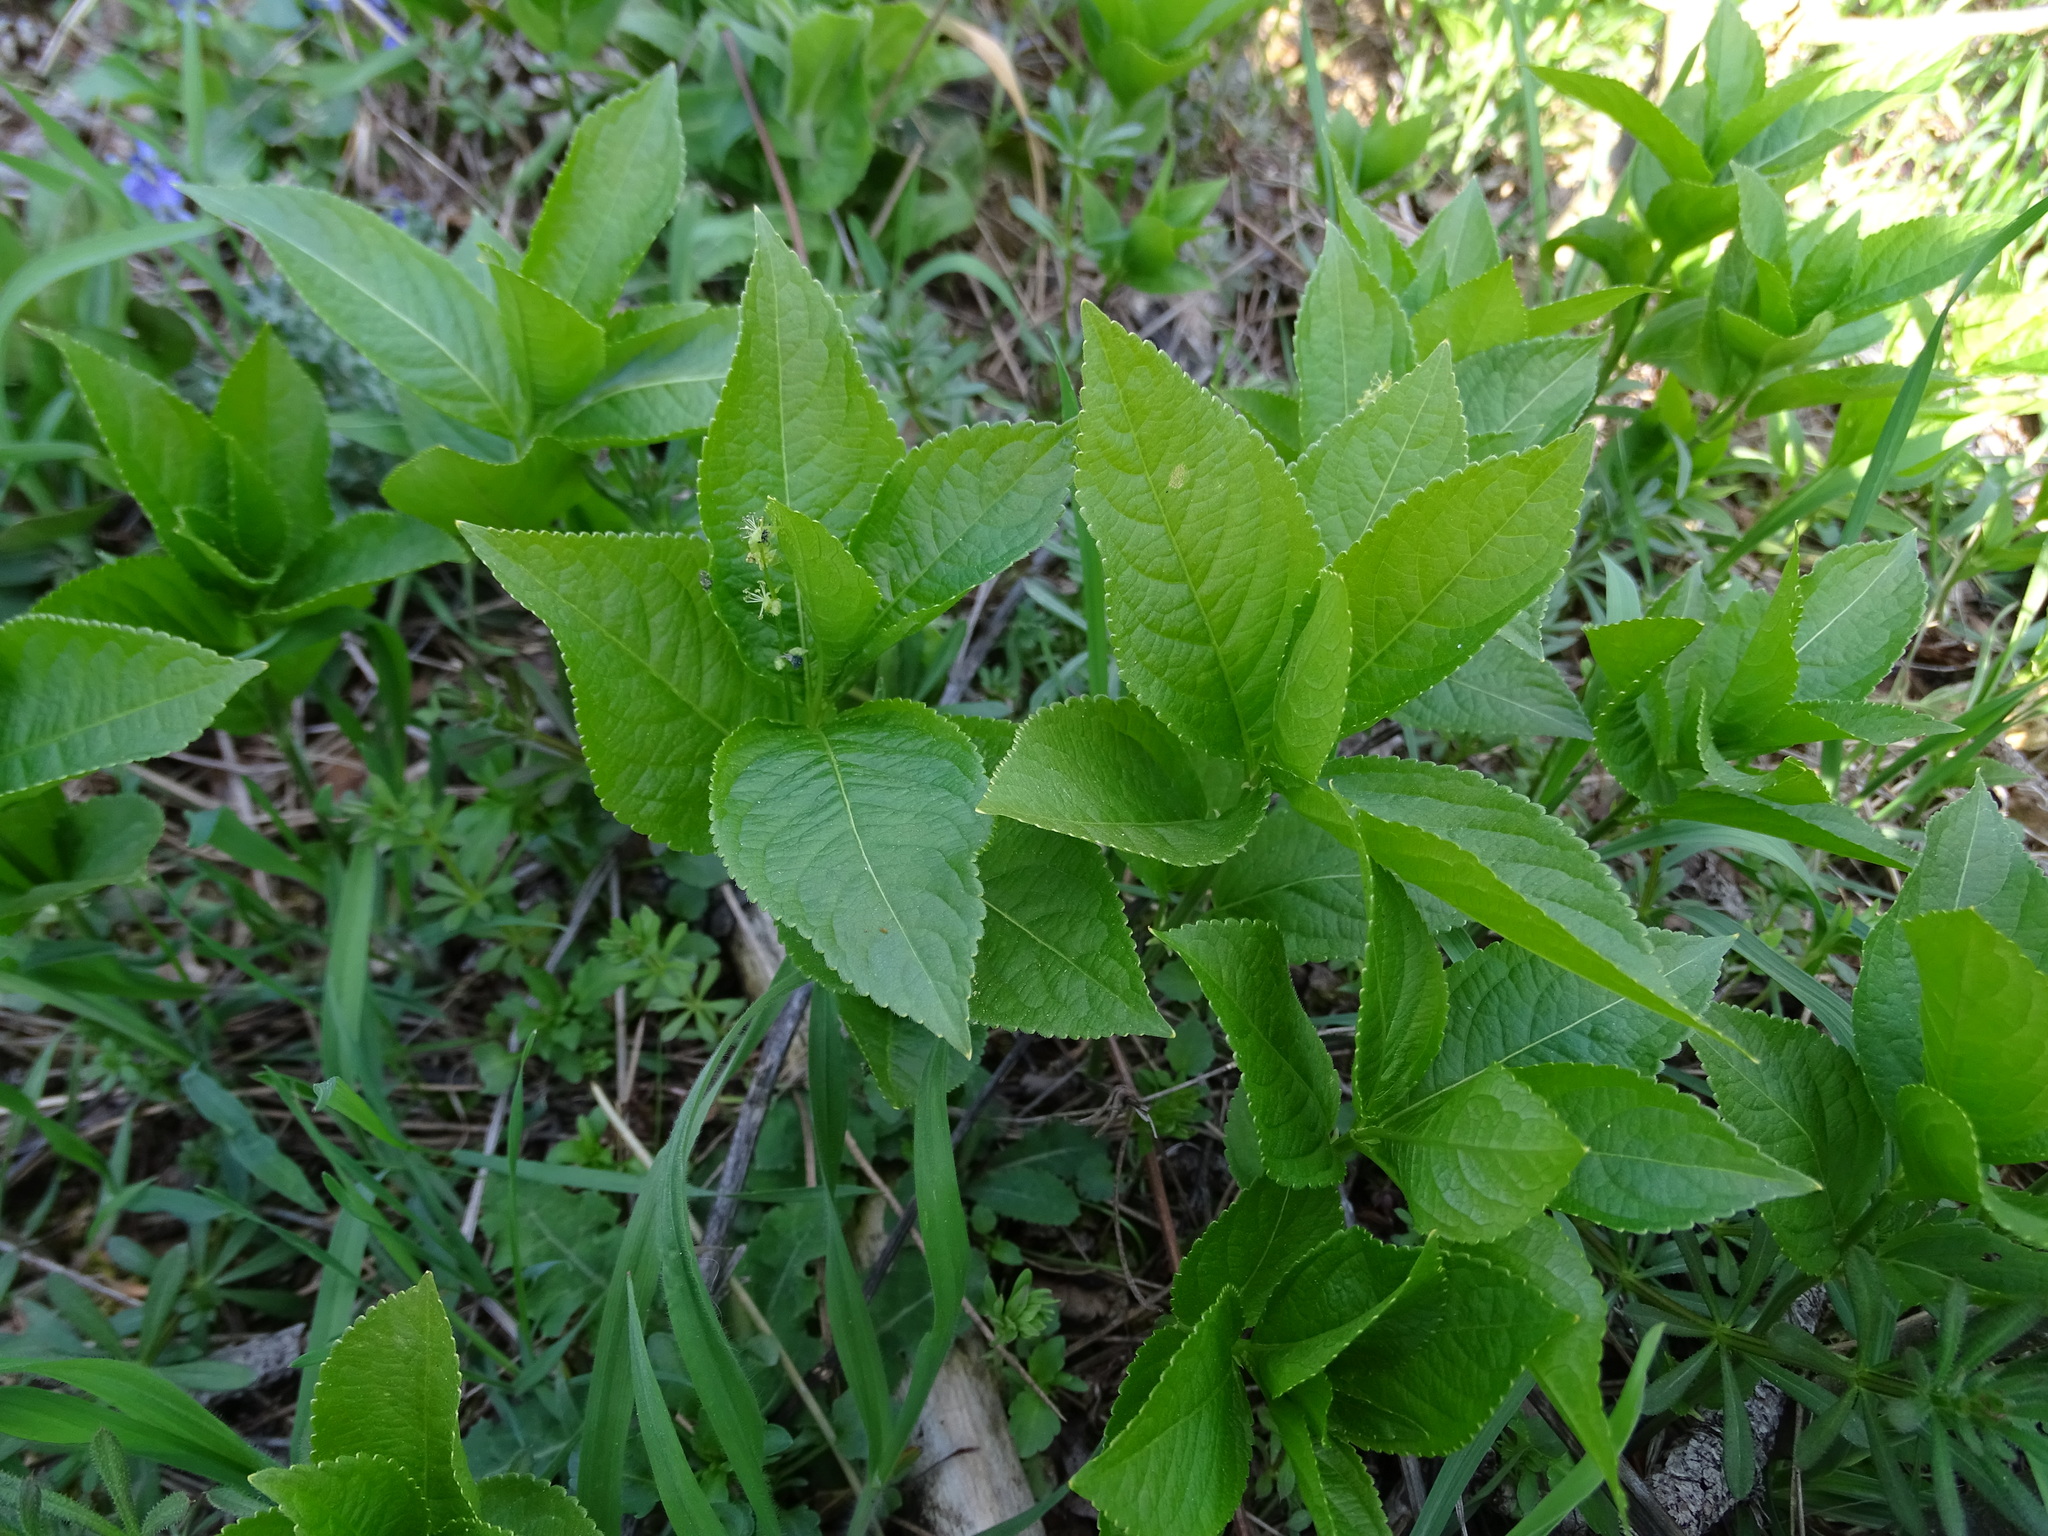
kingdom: Plantae
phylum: Tracheophyta
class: Magnoliopsida
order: Malpighiales
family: Euphorbiaceae
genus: Mercurialis
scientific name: Mercurialis perennis
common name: Dog mercury
